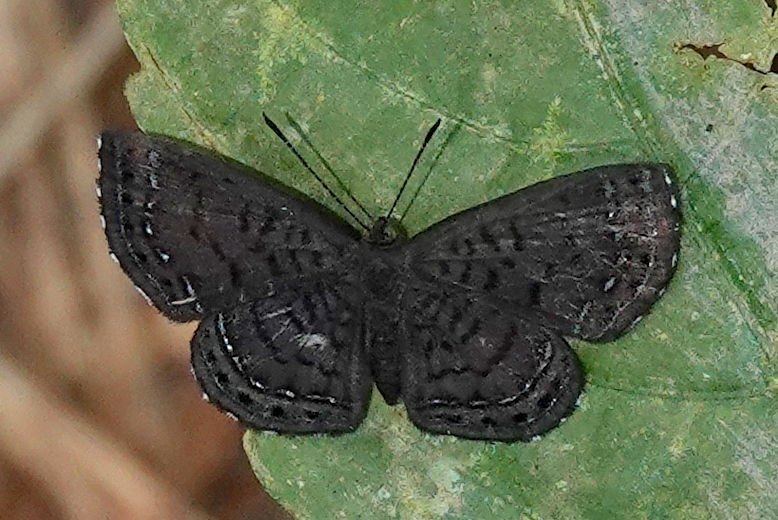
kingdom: Animalia
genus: Charis
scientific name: Charis anius
